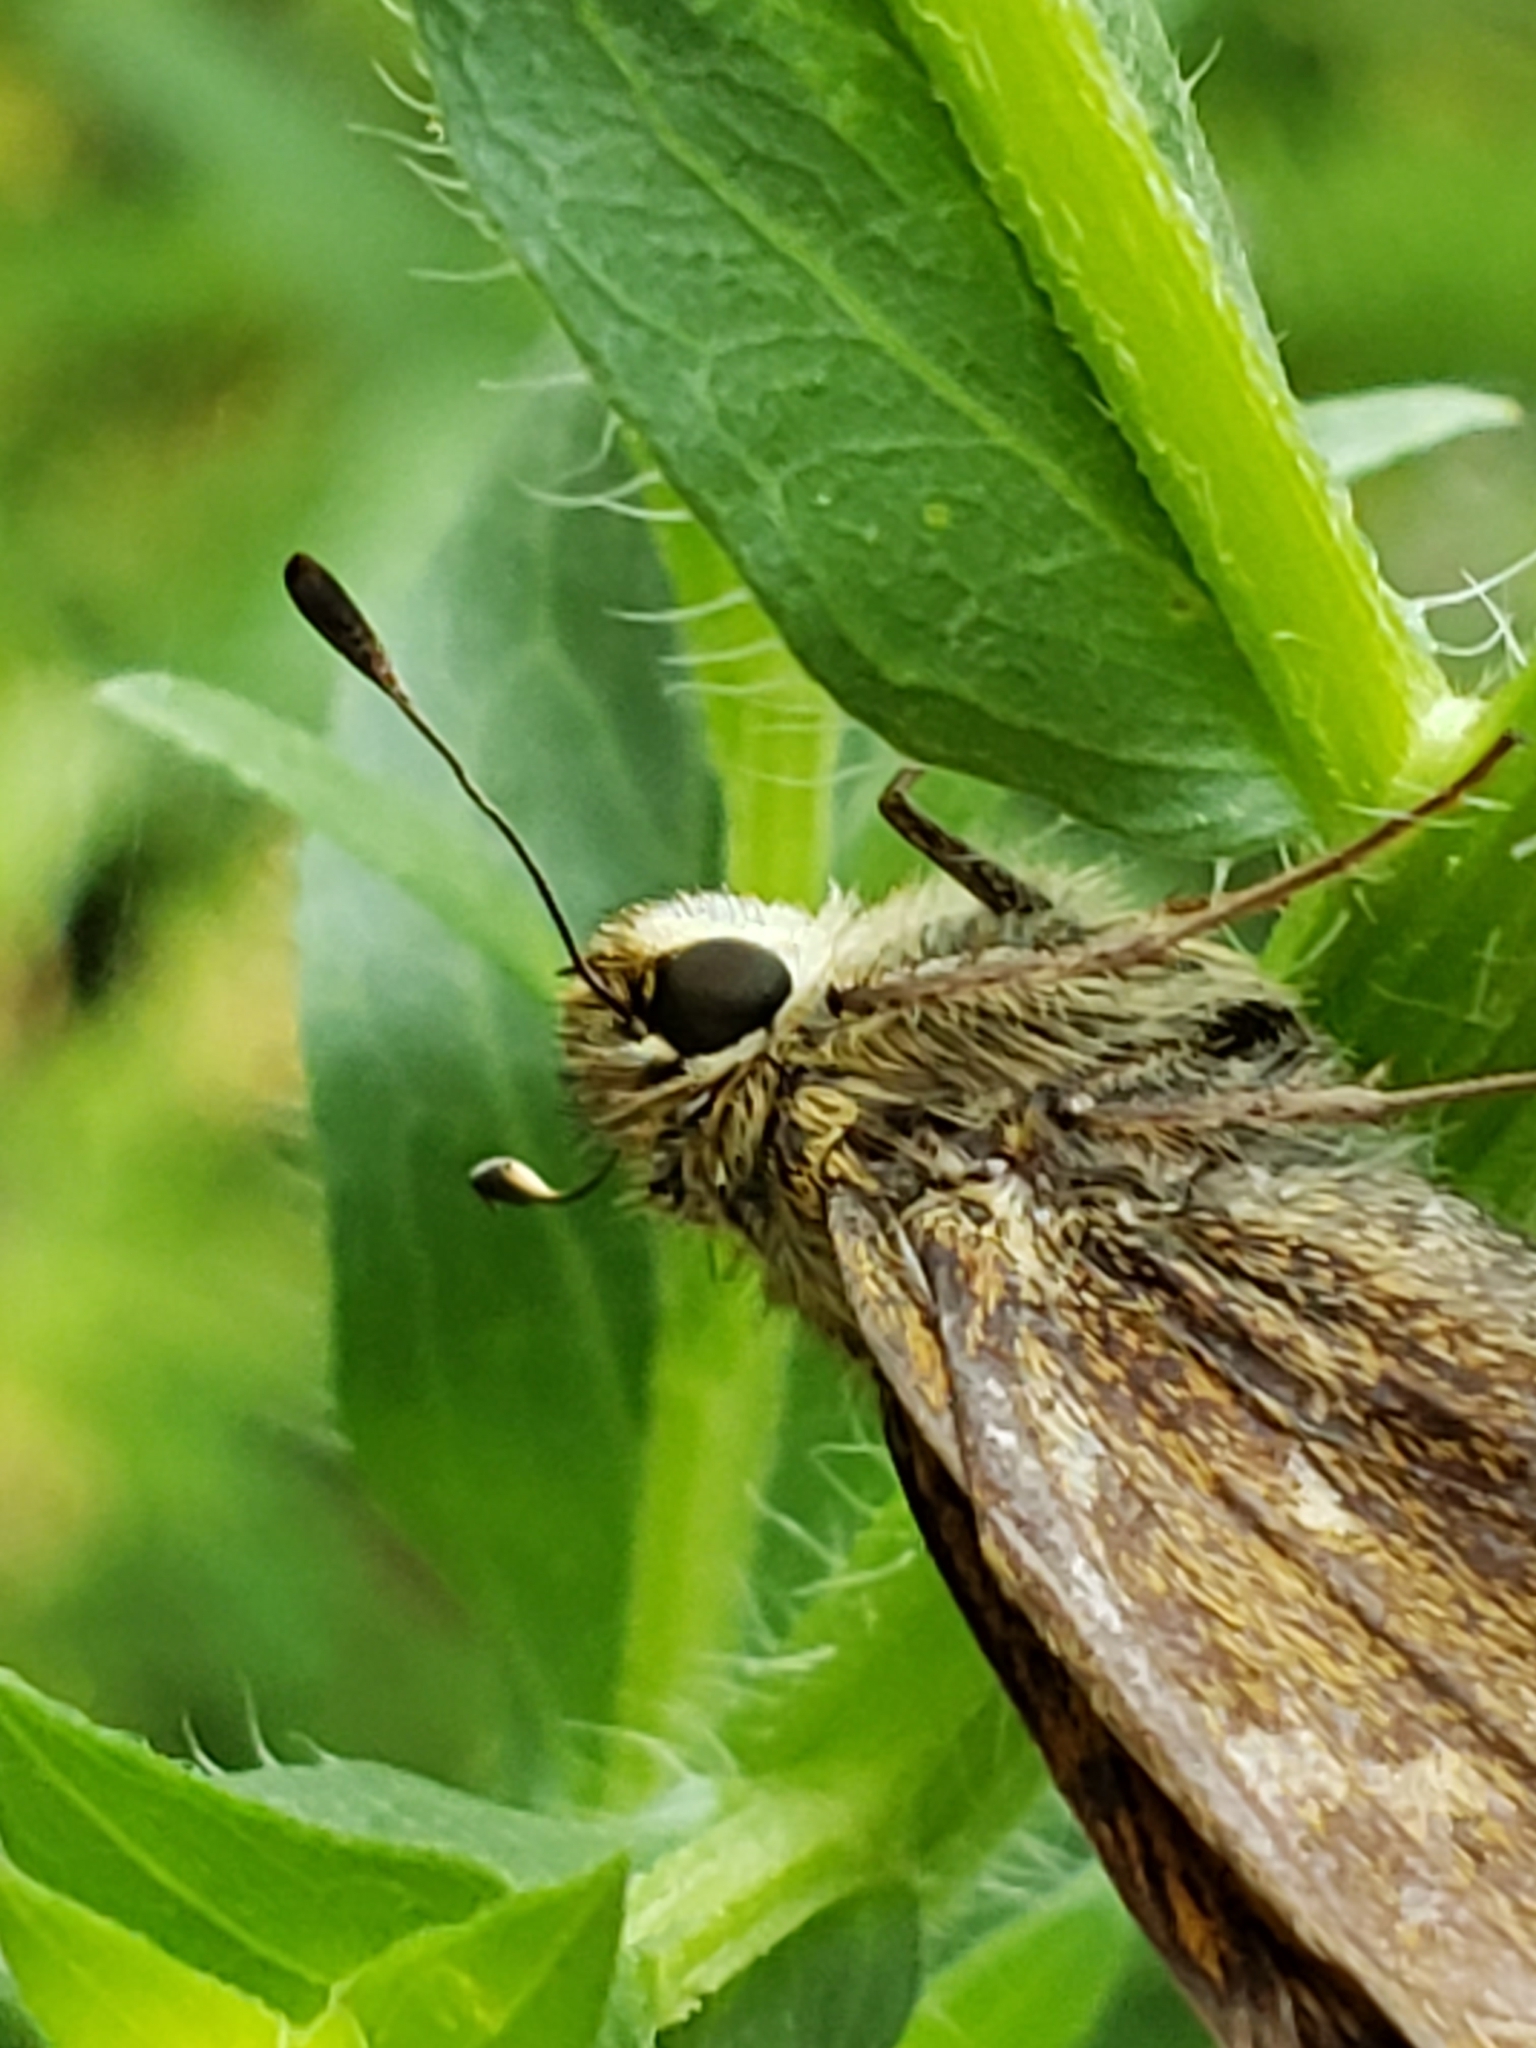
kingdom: Animalia
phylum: Arthropoda
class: Insecta
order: Lepidoptera
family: Hesperiidae
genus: Atalopedes
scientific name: Atalopedes
